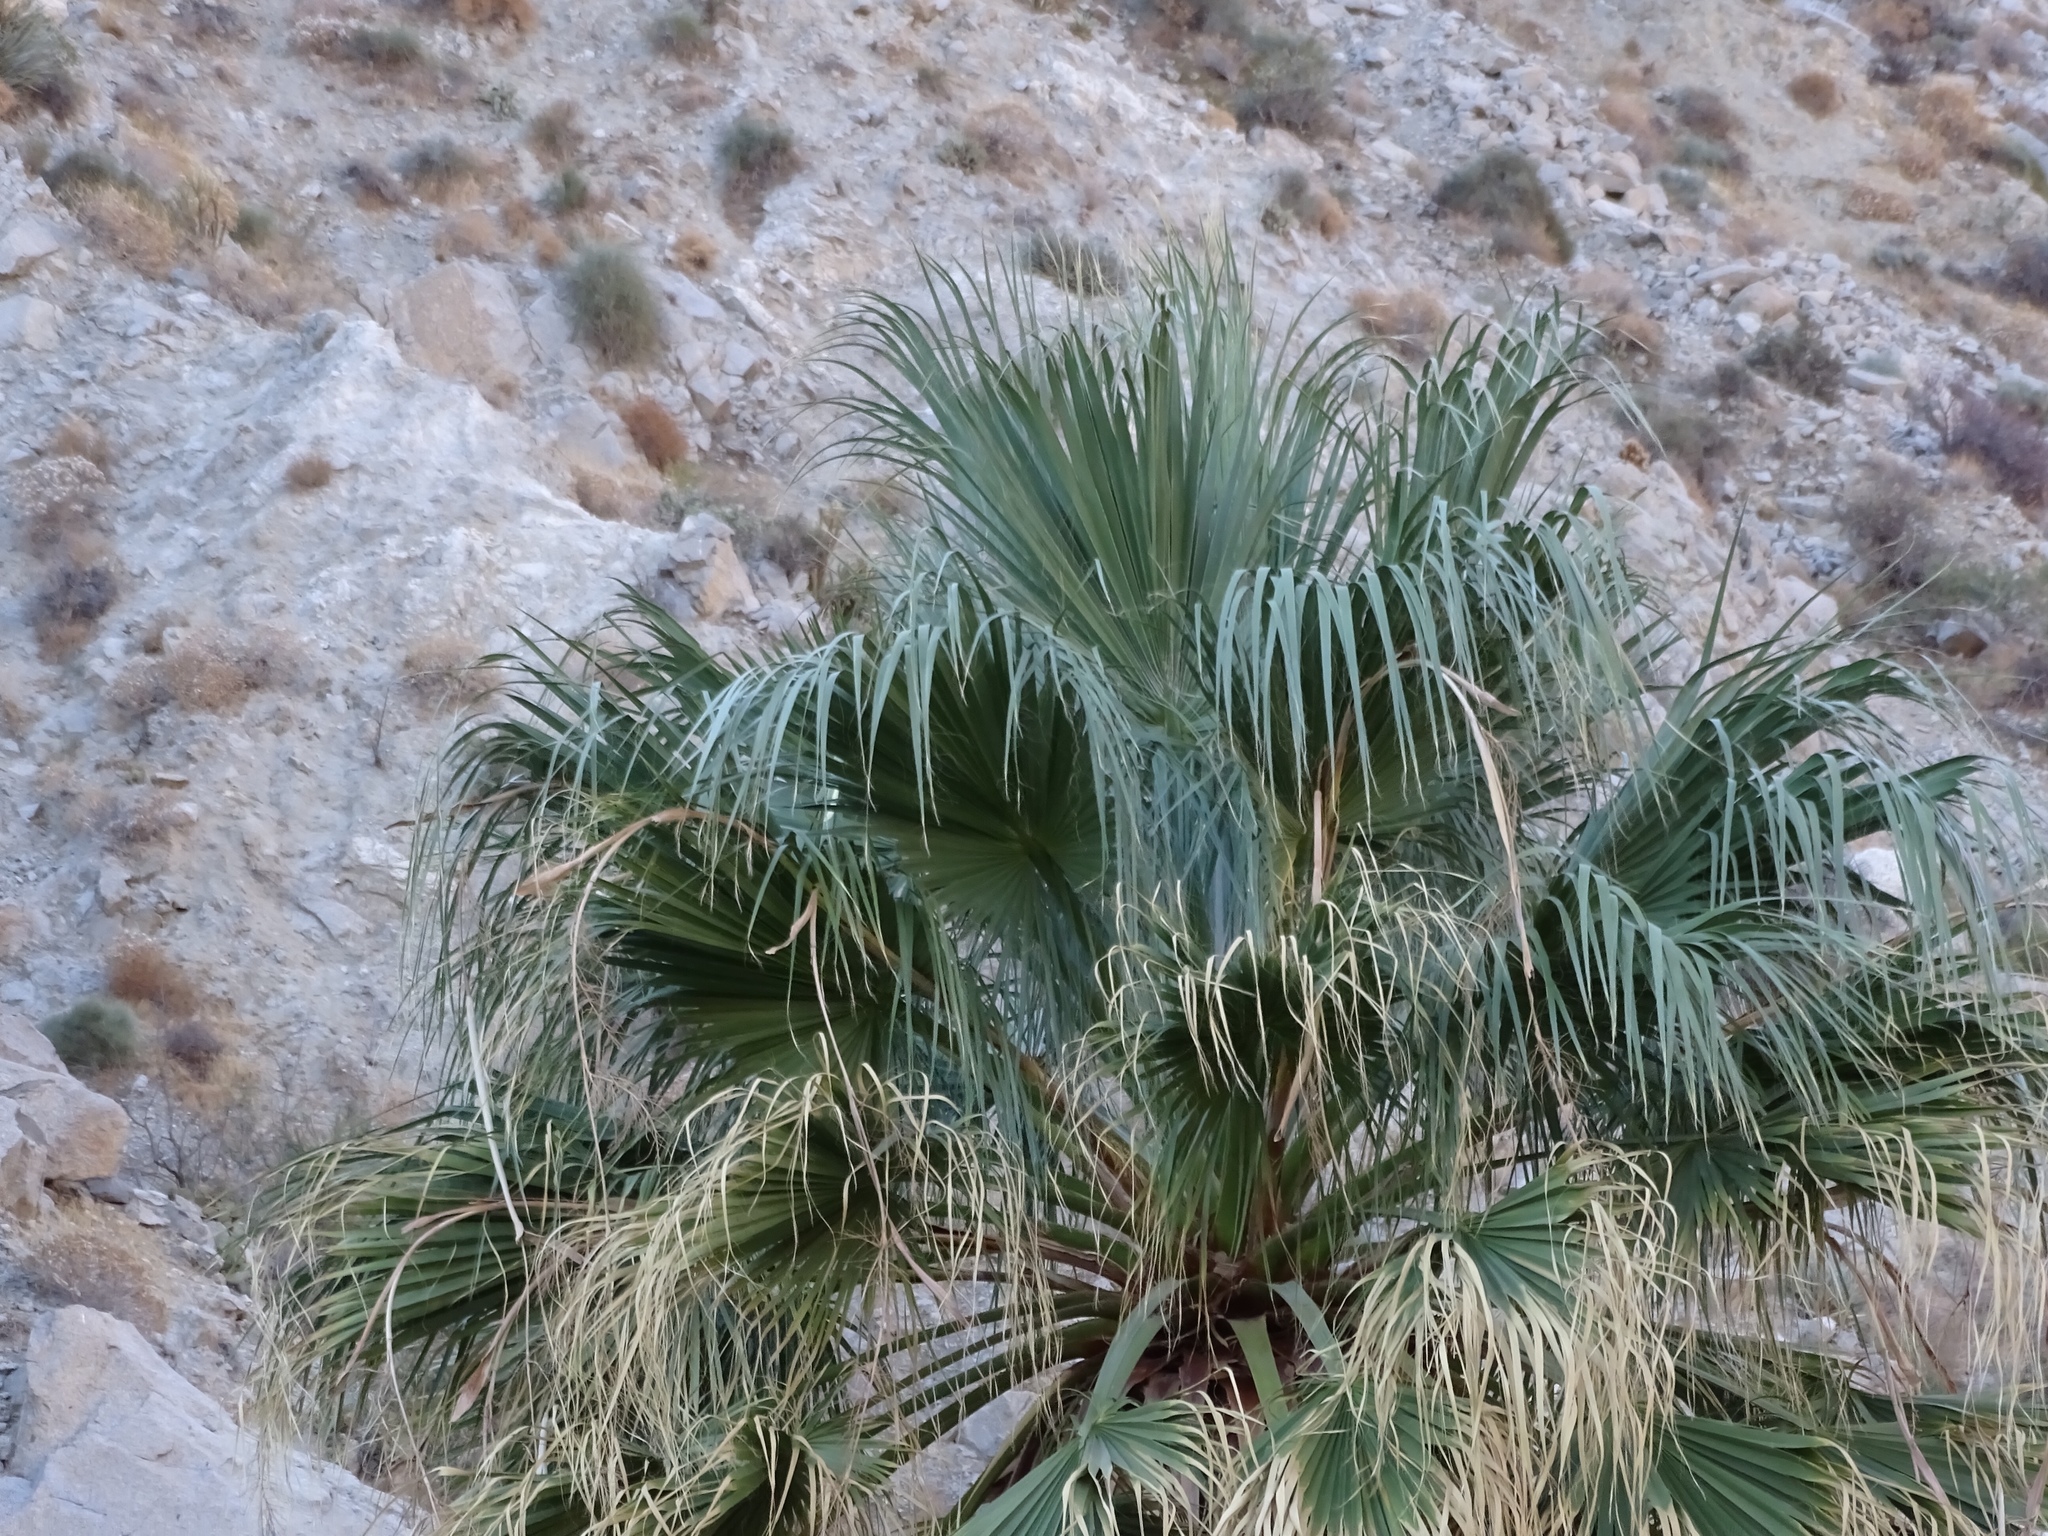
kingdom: Plantae
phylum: Tracheophyta
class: Liliopsida
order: Arecales
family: Arecaceae
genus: Washingtonia
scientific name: Washingtonia filifera
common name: California fan palm
